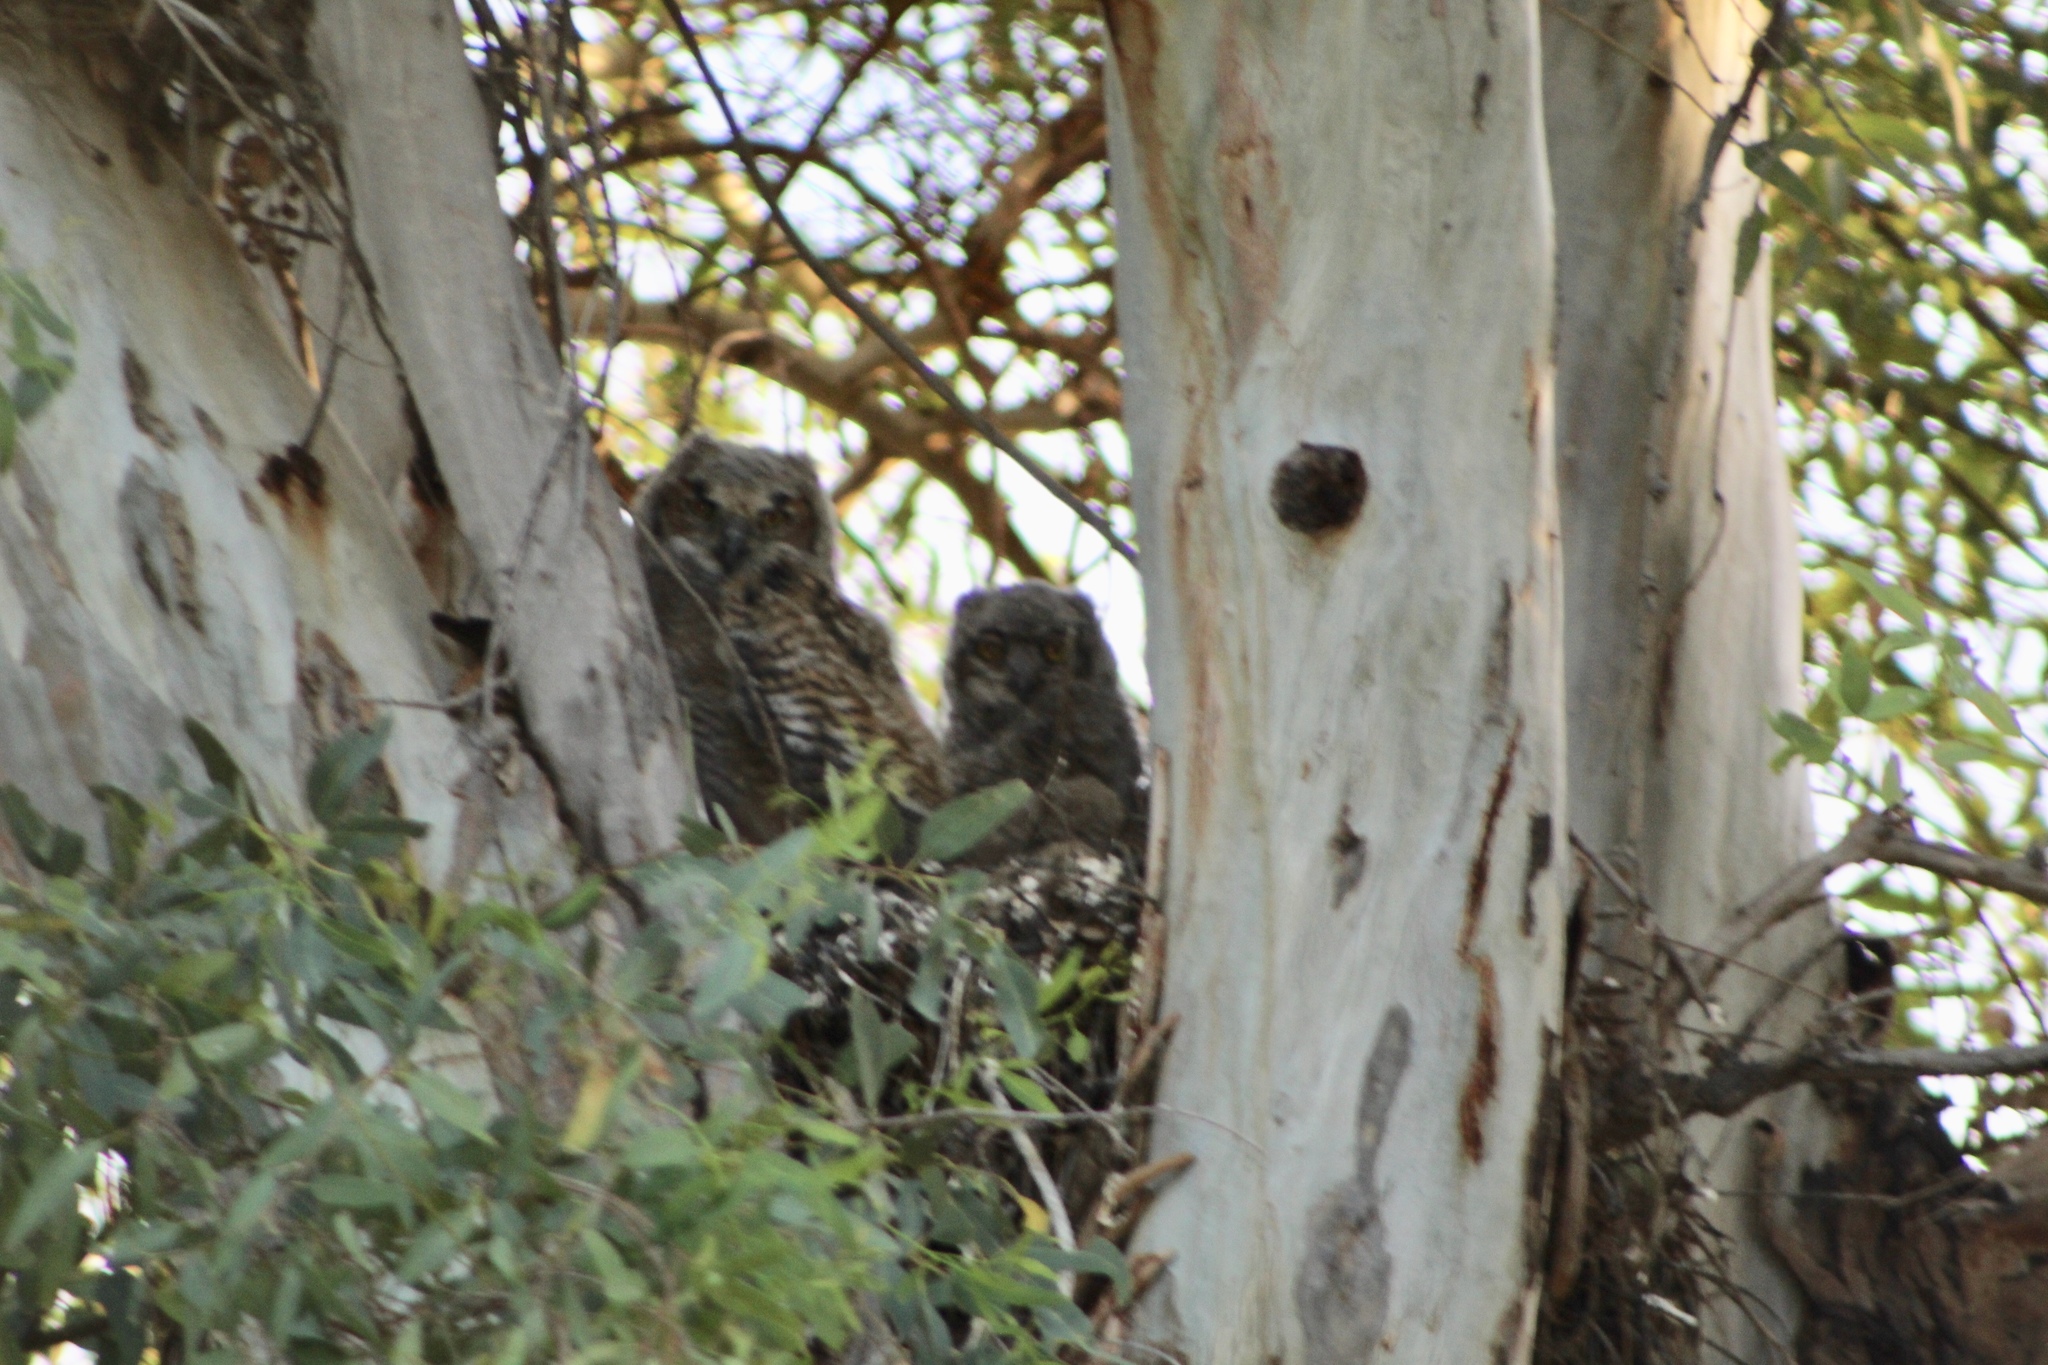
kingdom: Animalia
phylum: Chordata
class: Aves
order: Strigiformes
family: Strigidae
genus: Bubo
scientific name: Bubo virginianus
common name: Great horned owl
